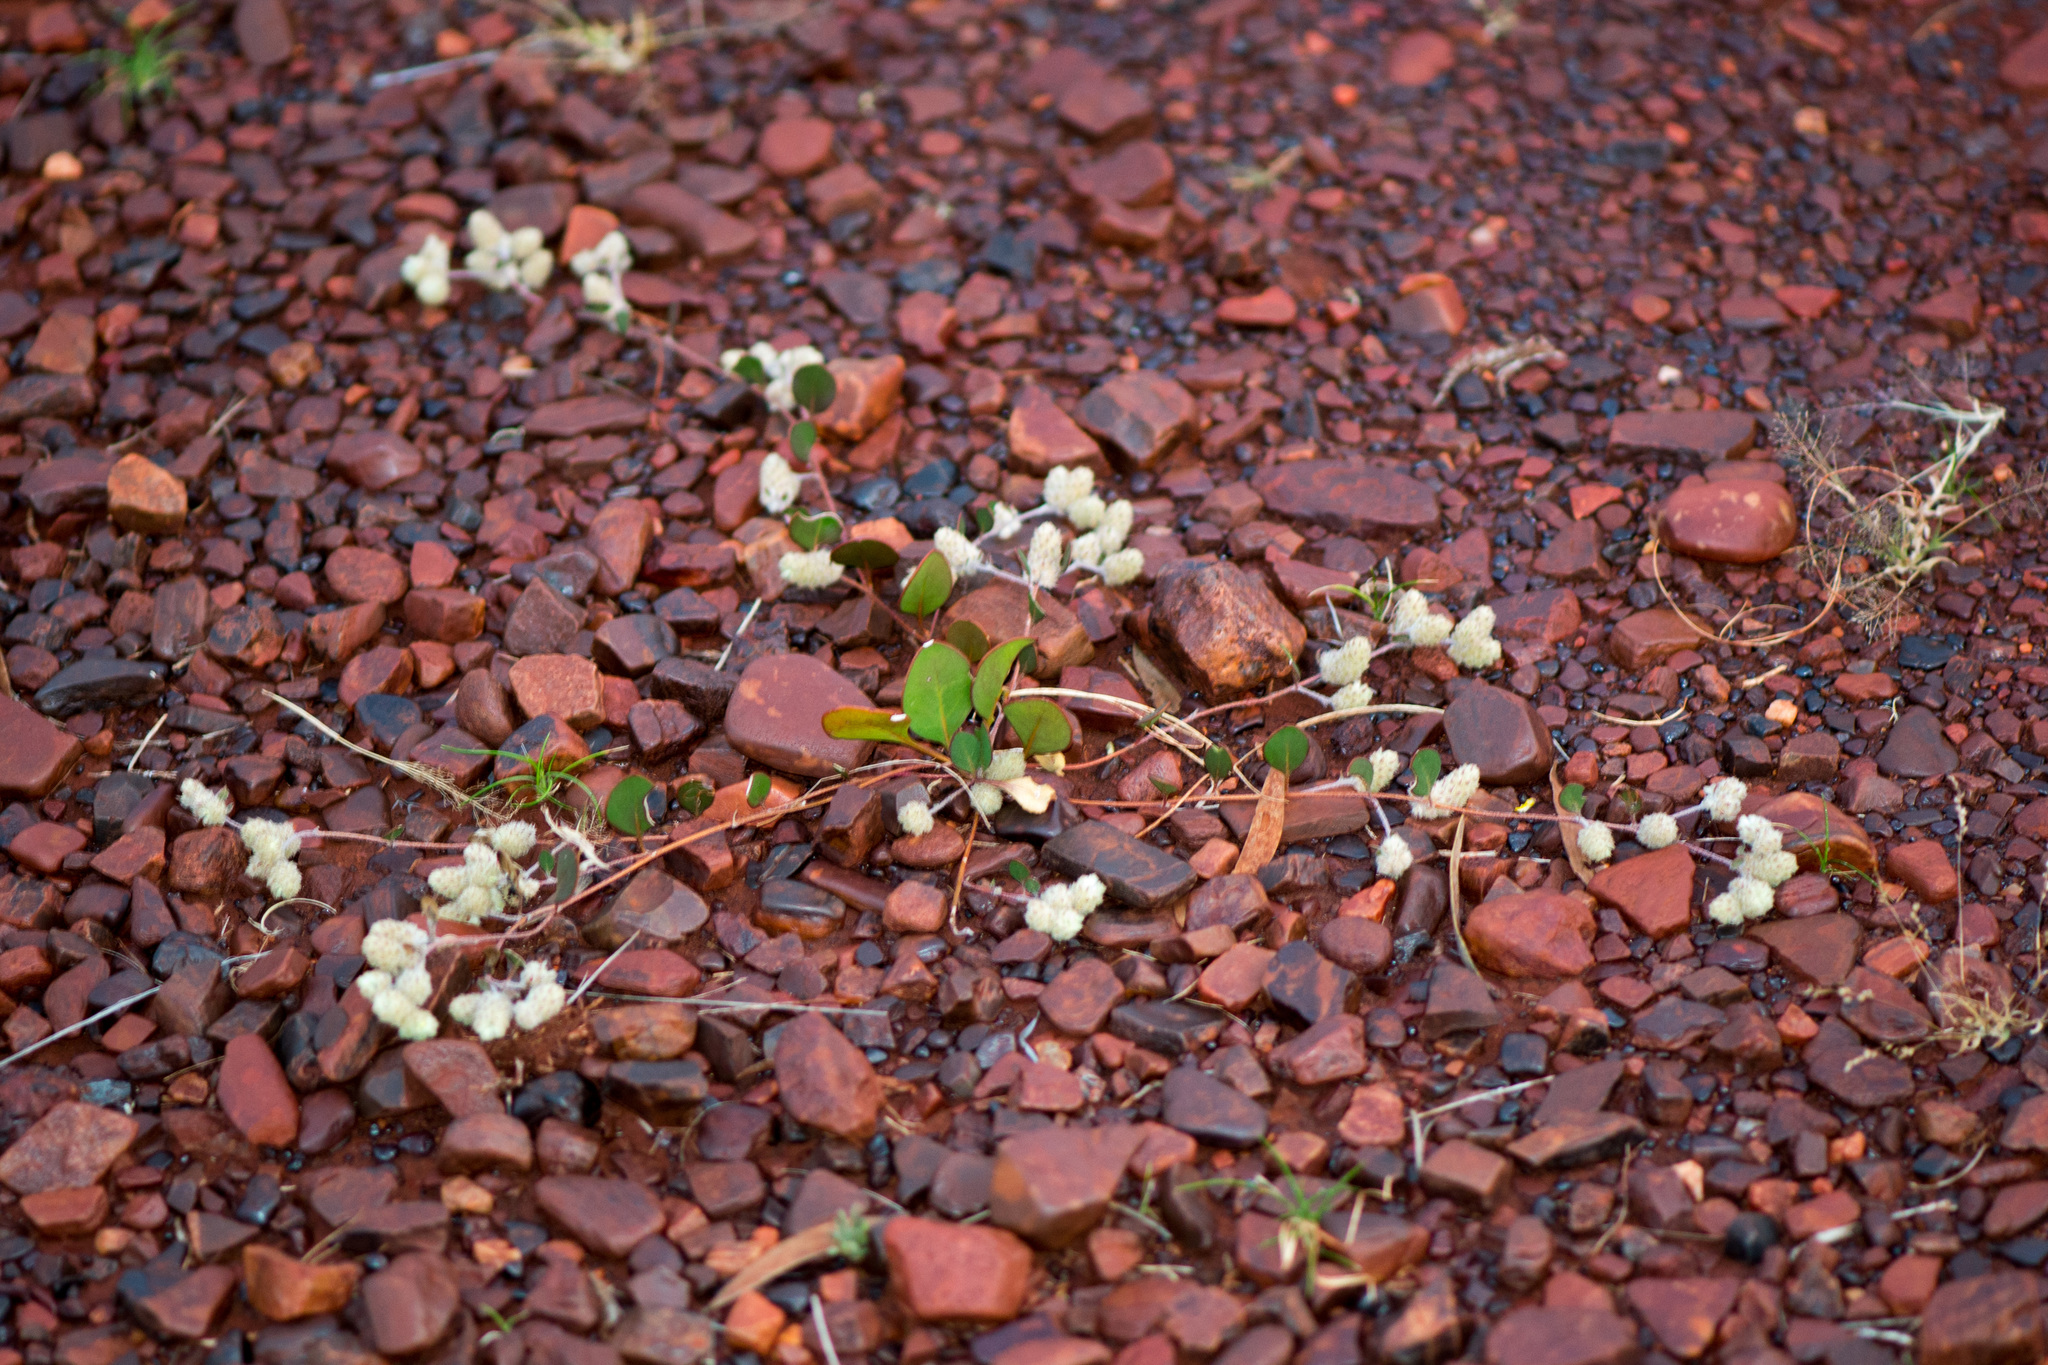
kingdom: Plantae
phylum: Tracheophyta
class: Magnoliopsida
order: Caryophyllales
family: Amaranthaceae
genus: Ptilotus
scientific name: Ptilotus aervoides
